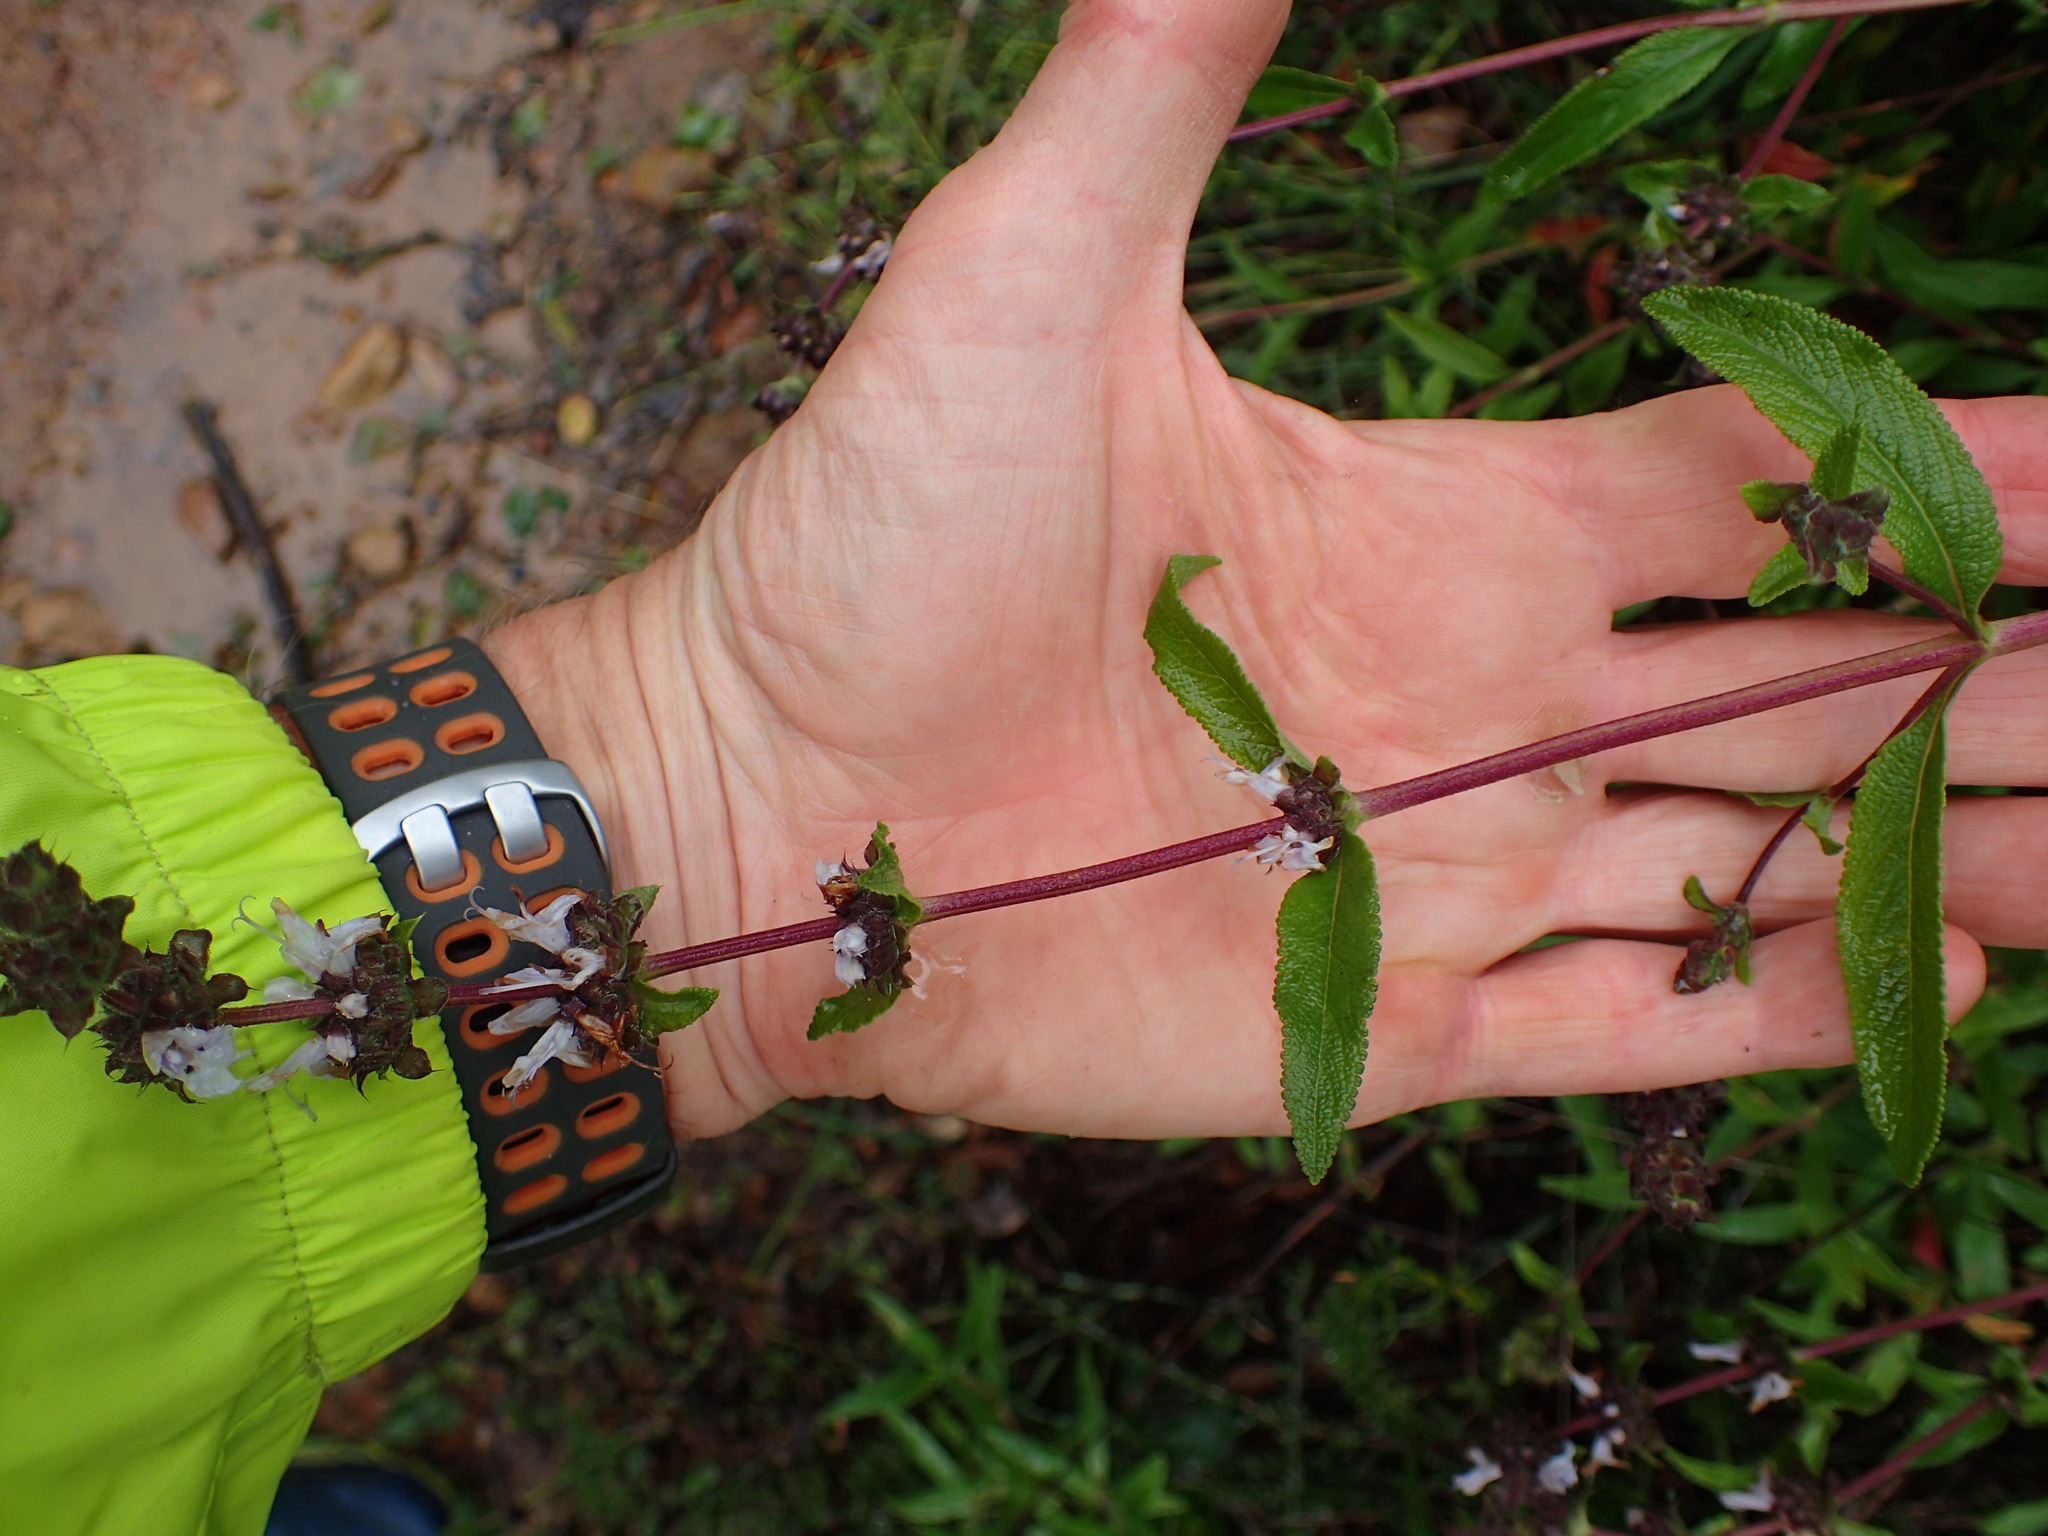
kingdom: Plantae
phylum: Tracheophyta
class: Magnoliopsida
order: Lamiales
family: Lamiaceae
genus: Salvia
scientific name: Salvia mellifera
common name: Black sage
